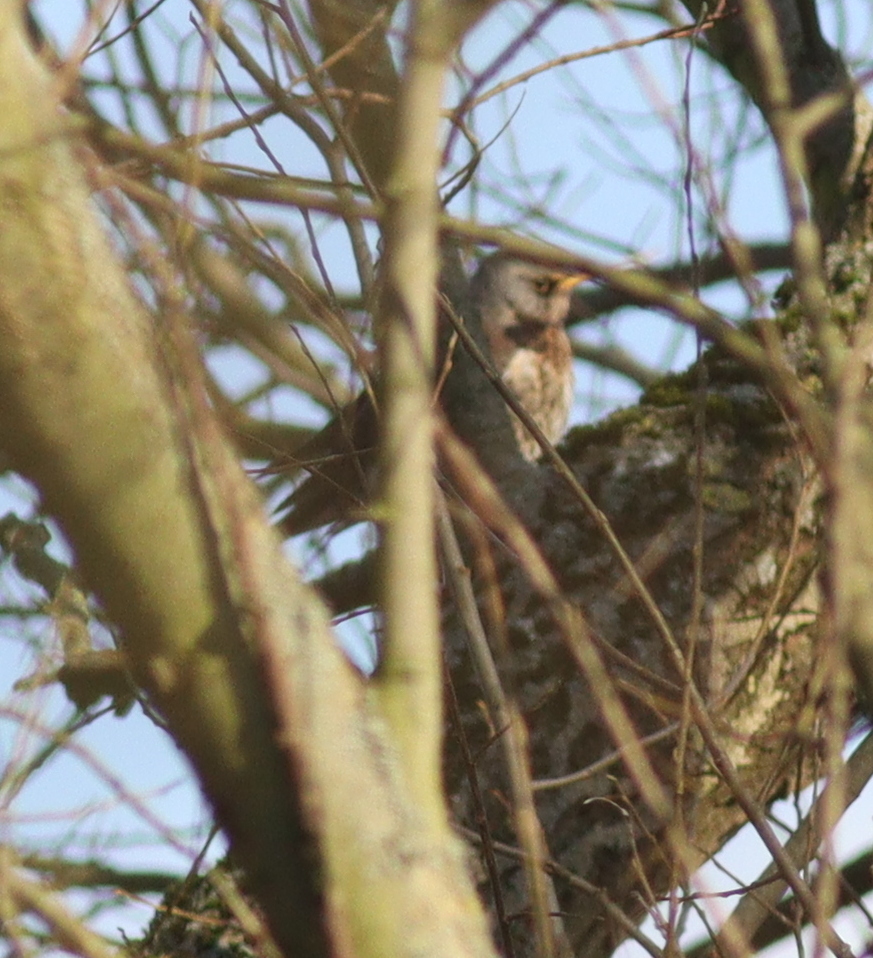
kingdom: Animalia
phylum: Chordata
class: Aves
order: Passeriformes
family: Turdidae
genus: Turdus
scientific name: Turdus pilaris
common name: Fieldfare
